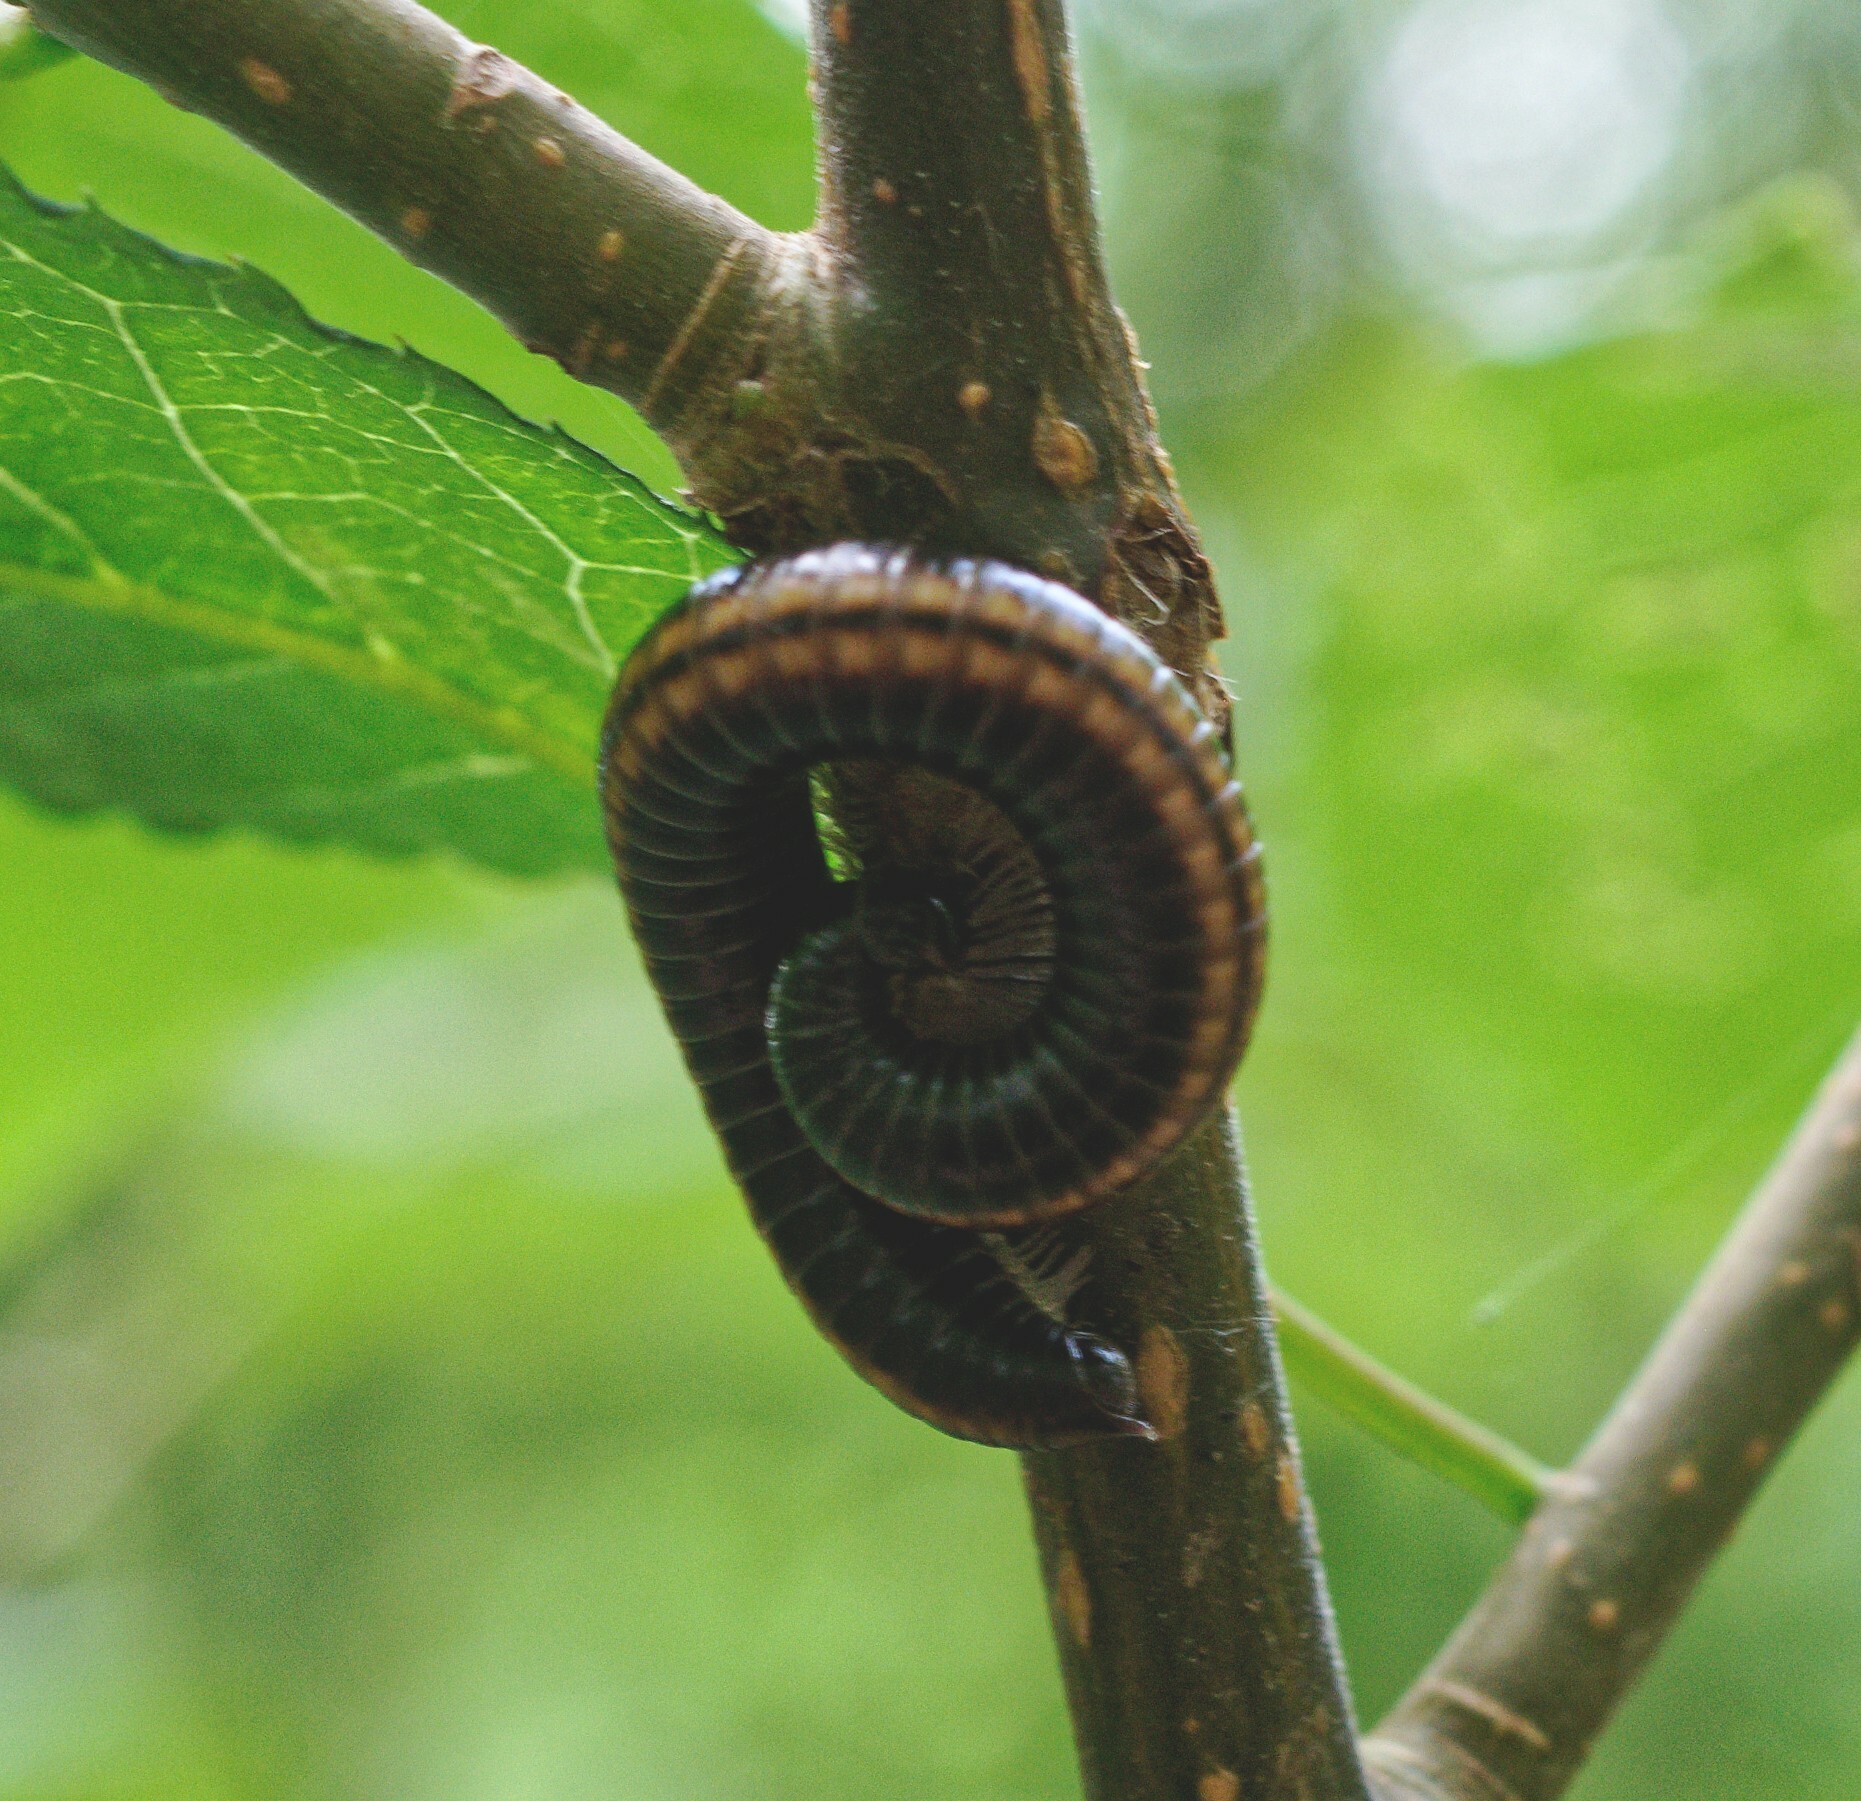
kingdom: Animalia
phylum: Arthropoda
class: Diplopoda
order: Julida
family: Julidae
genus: Ommatoiulus
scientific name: Ommatoiulus sabulosus
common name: Striped millipede
